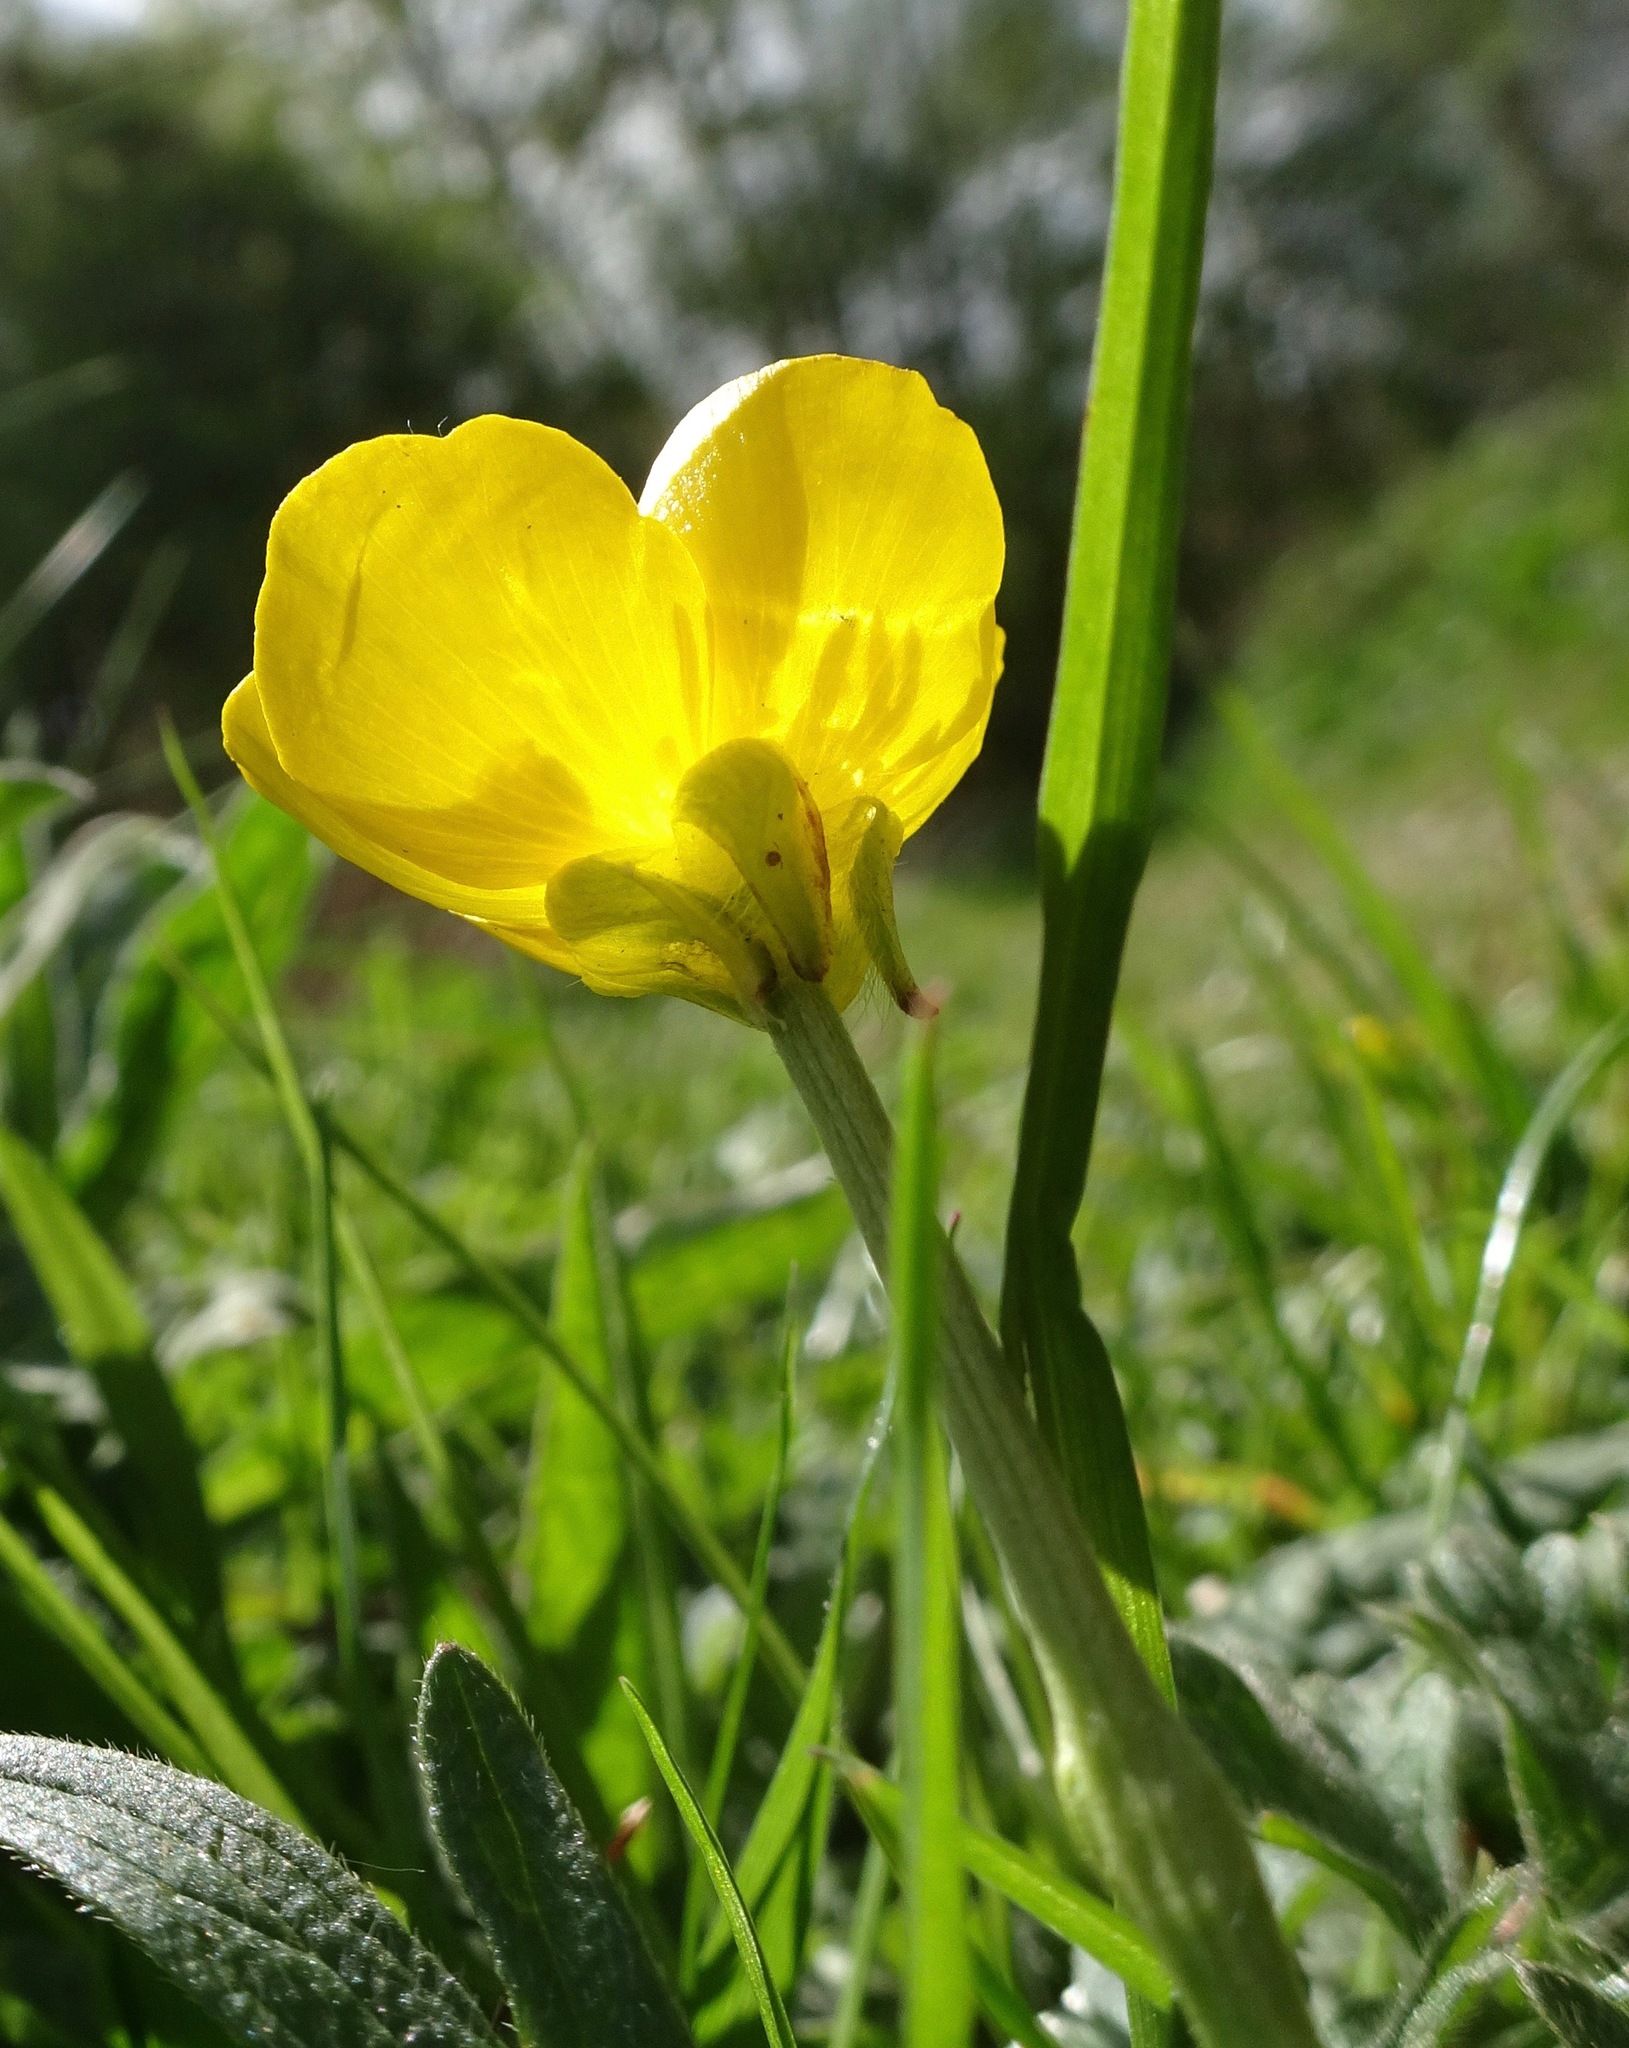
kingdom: Plantae
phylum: Tracheophyta
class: Magnoliopsida
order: Ranunculales
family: Ranunculaceae
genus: Ranunculus
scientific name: Ranunculus bulbosus
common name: Bulbous buttercup
